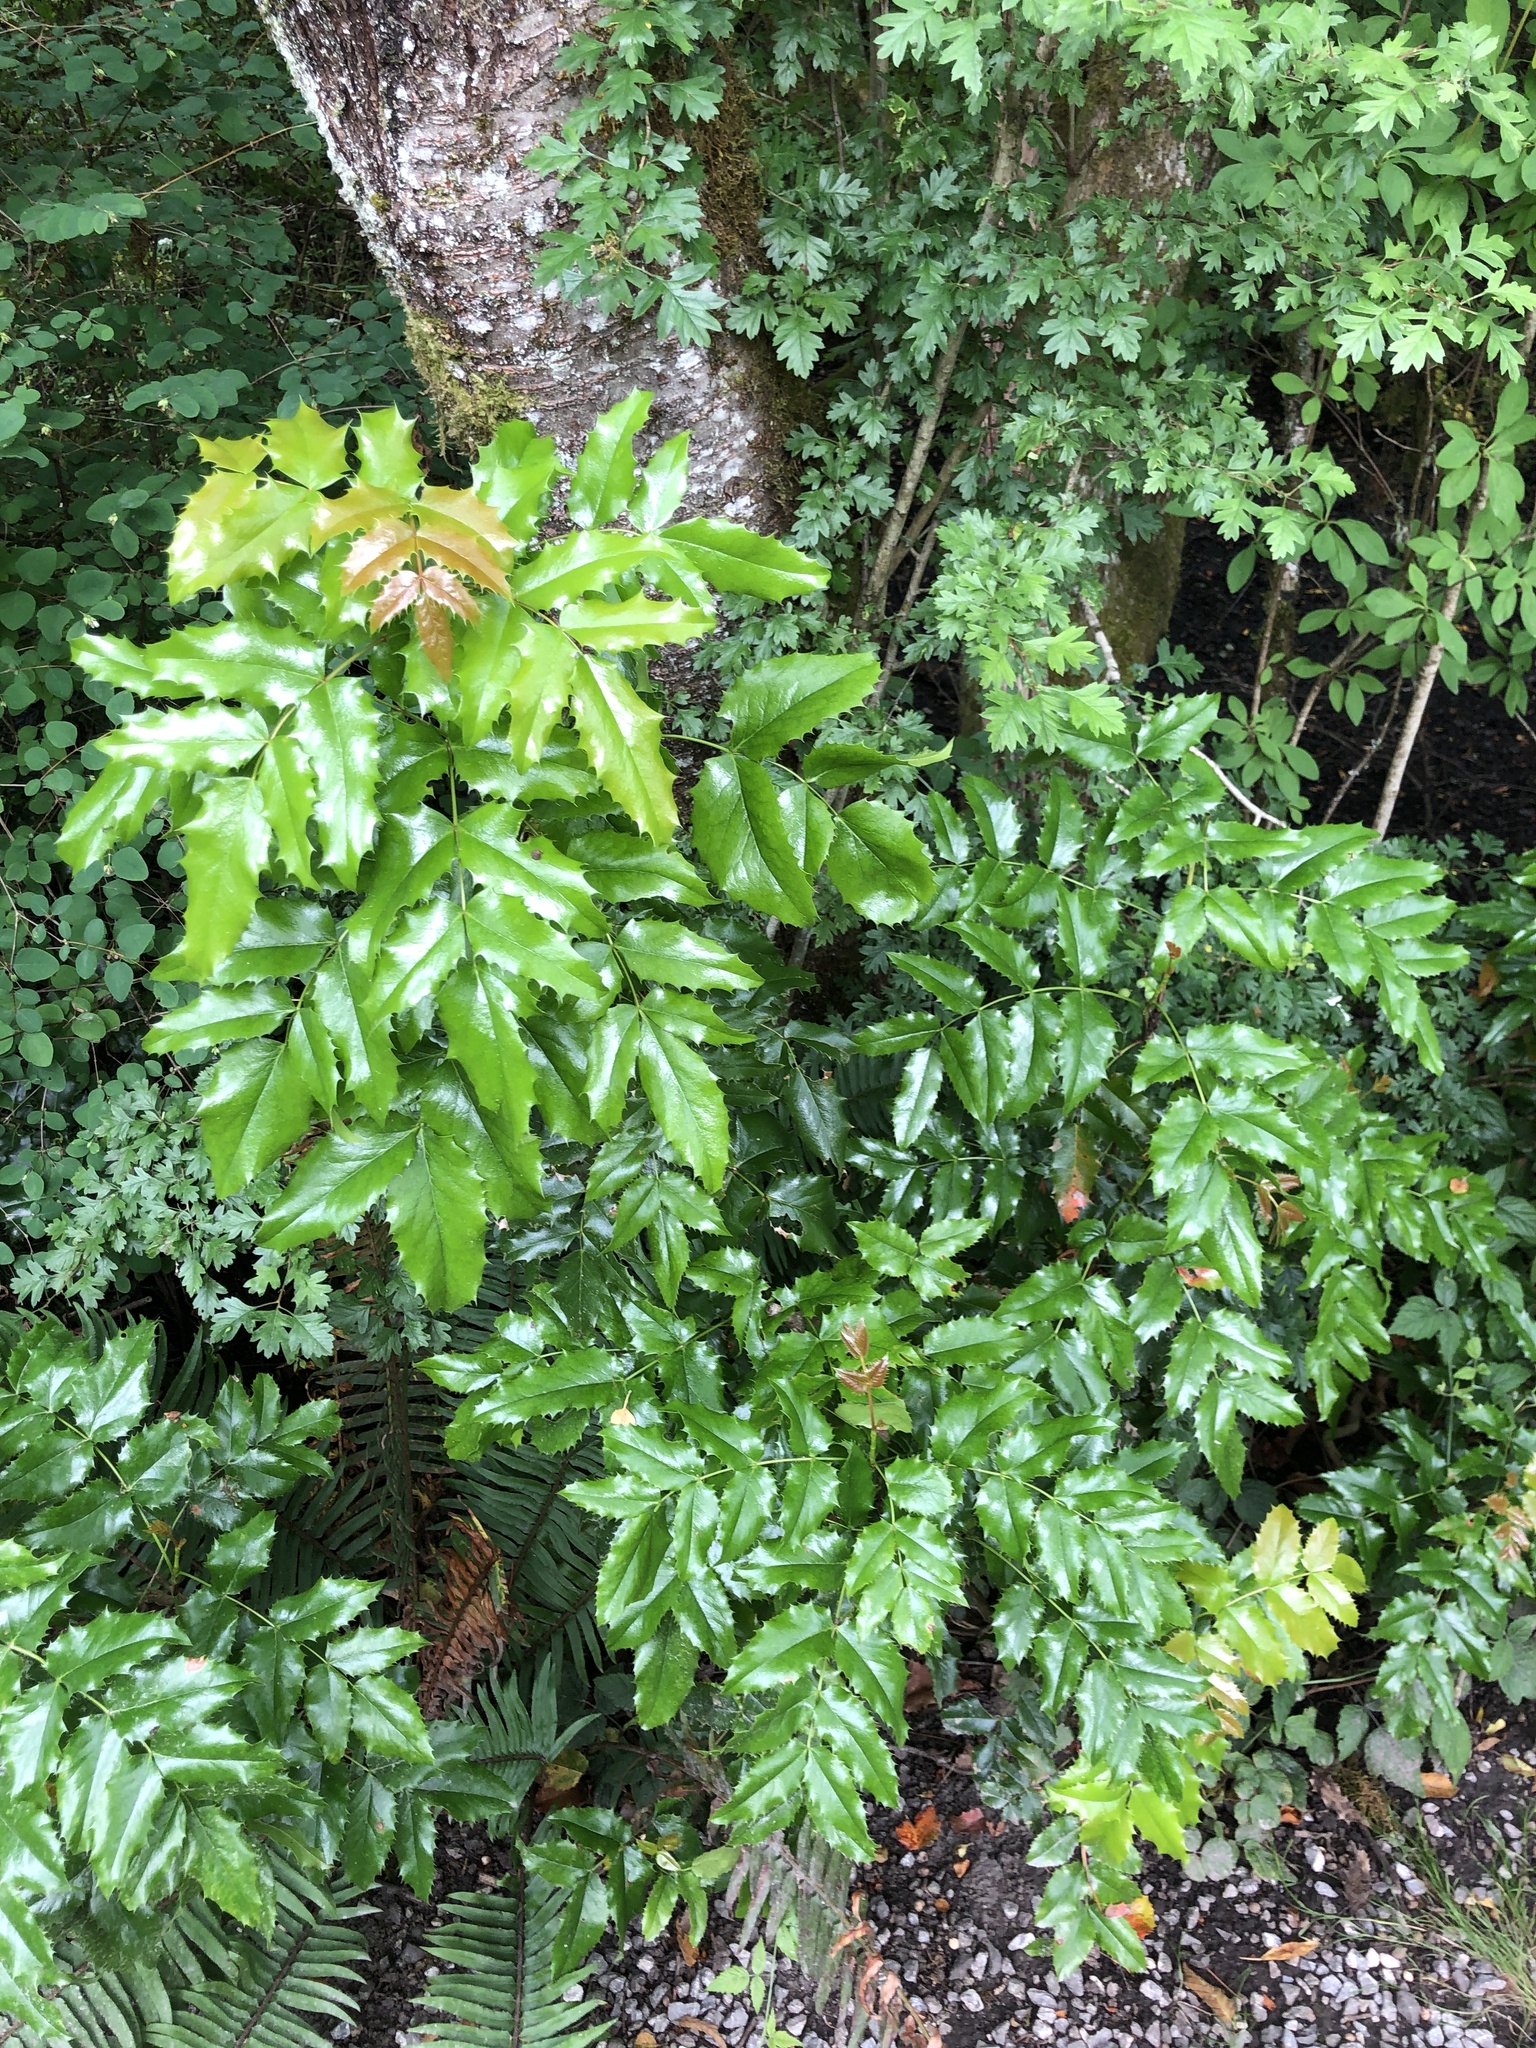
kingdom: Plantae
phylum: Tracheophyta
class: Magnoliopsida
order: Ranunculales
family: Berberidaceae
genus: Mahonia
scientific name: Mahonia aquifolium
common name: Oregon-grape
